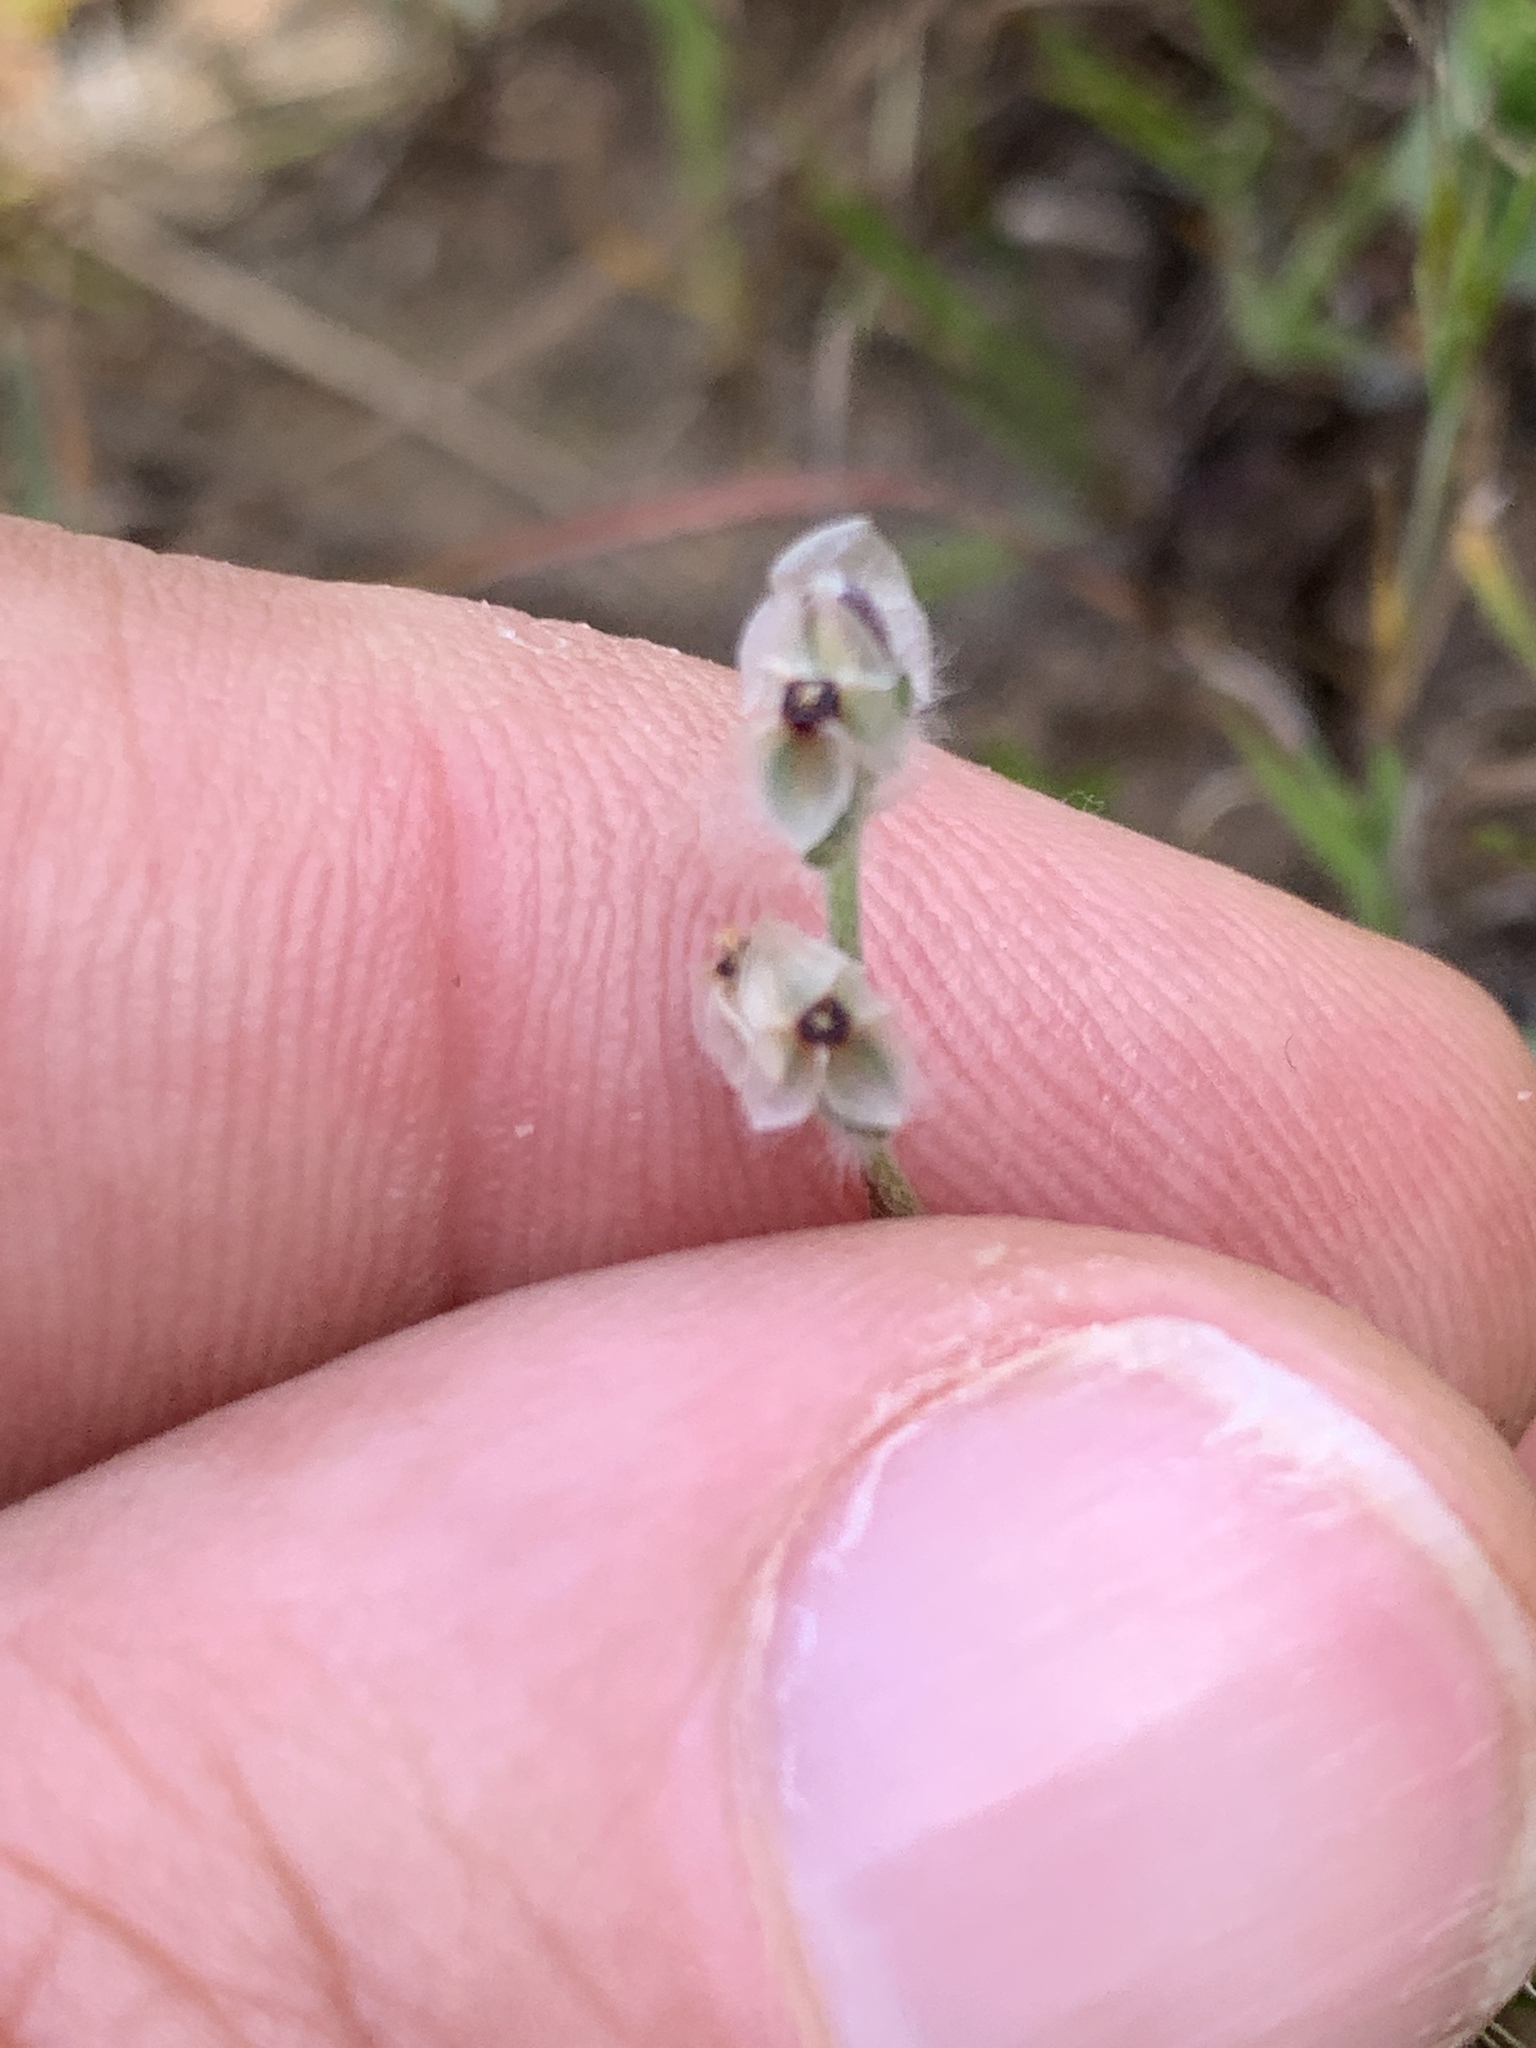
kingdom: Plantae
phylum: Tracheophyta
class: Magnoliopsida
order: Lamiales
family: Plantaginaceae
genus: Plantago
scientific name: Plantago erecta
